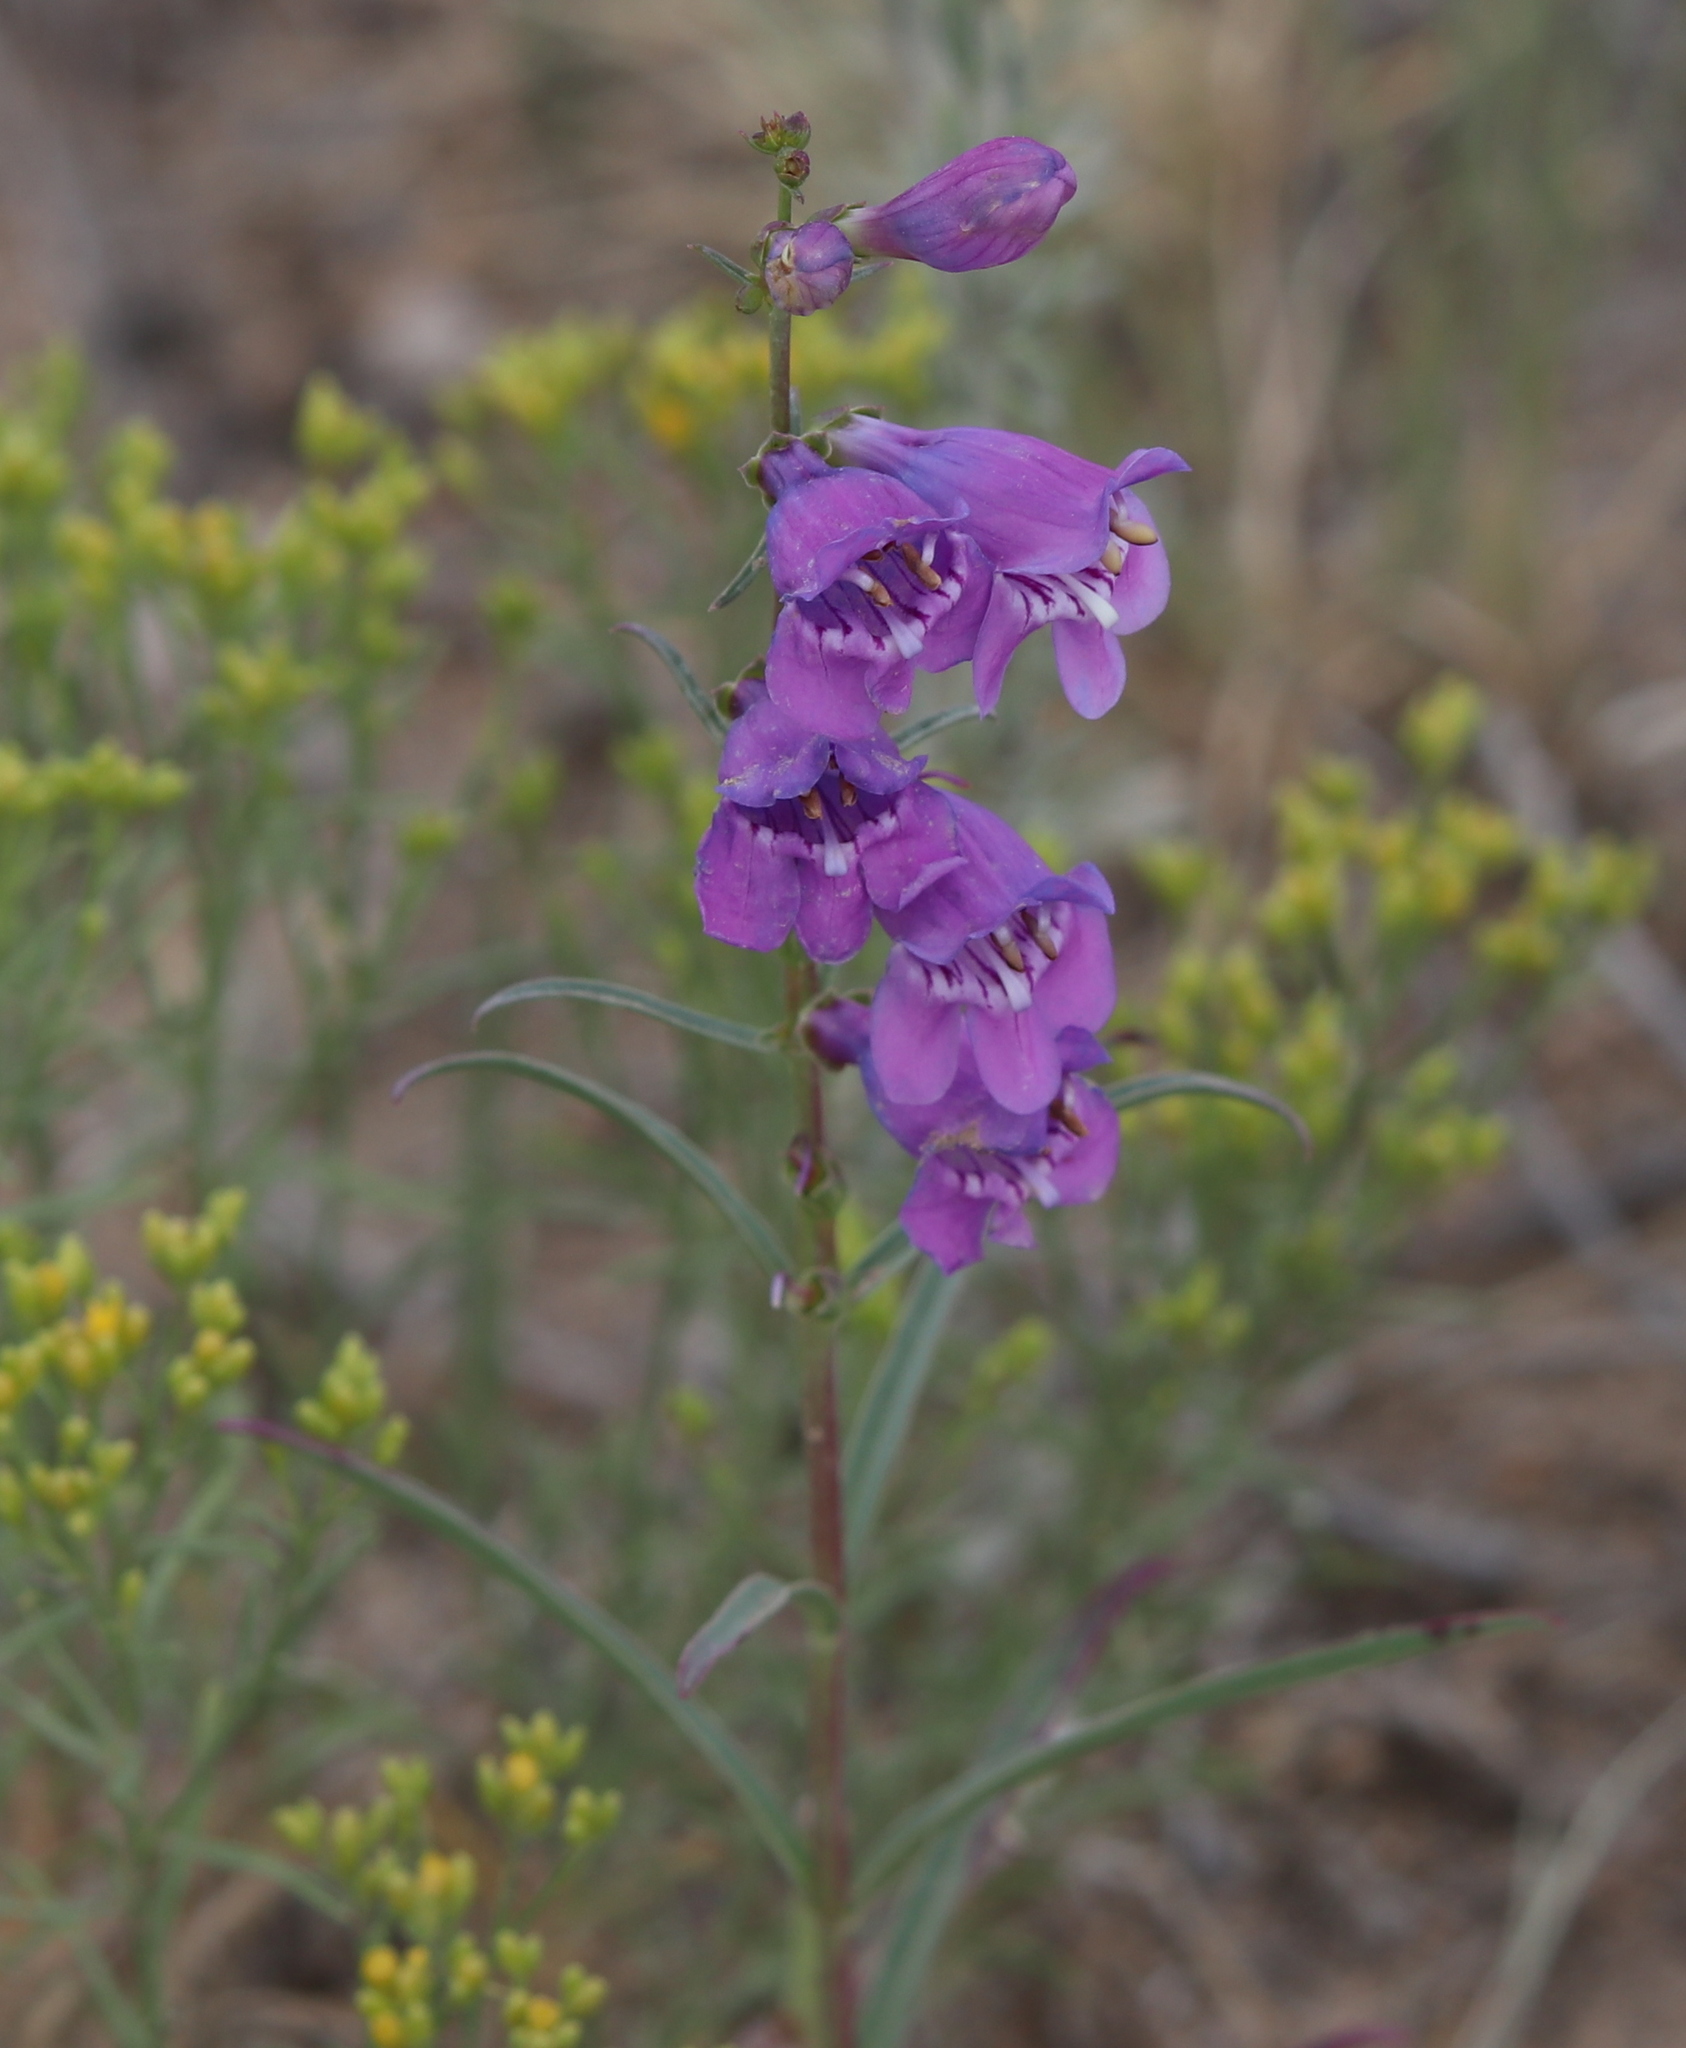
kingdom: Plantae
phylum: Tracheophyta
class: Magnoliopsida
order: Lamiales
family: Plantaginaceae
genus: Penstemon
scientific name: Penstemon virgatus
